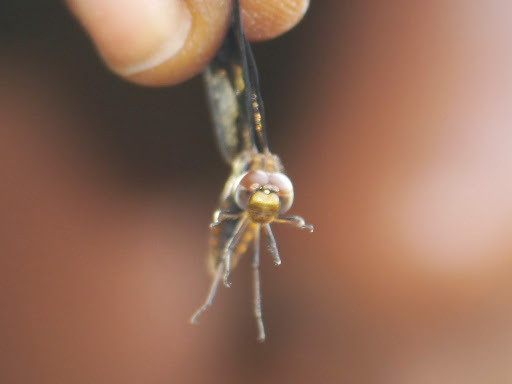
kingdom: Animalia
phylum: Arthropoda
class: Insecta
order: Odonata
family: Libellulidae
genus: Palpopleura
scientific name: Palpopleura albifrons
